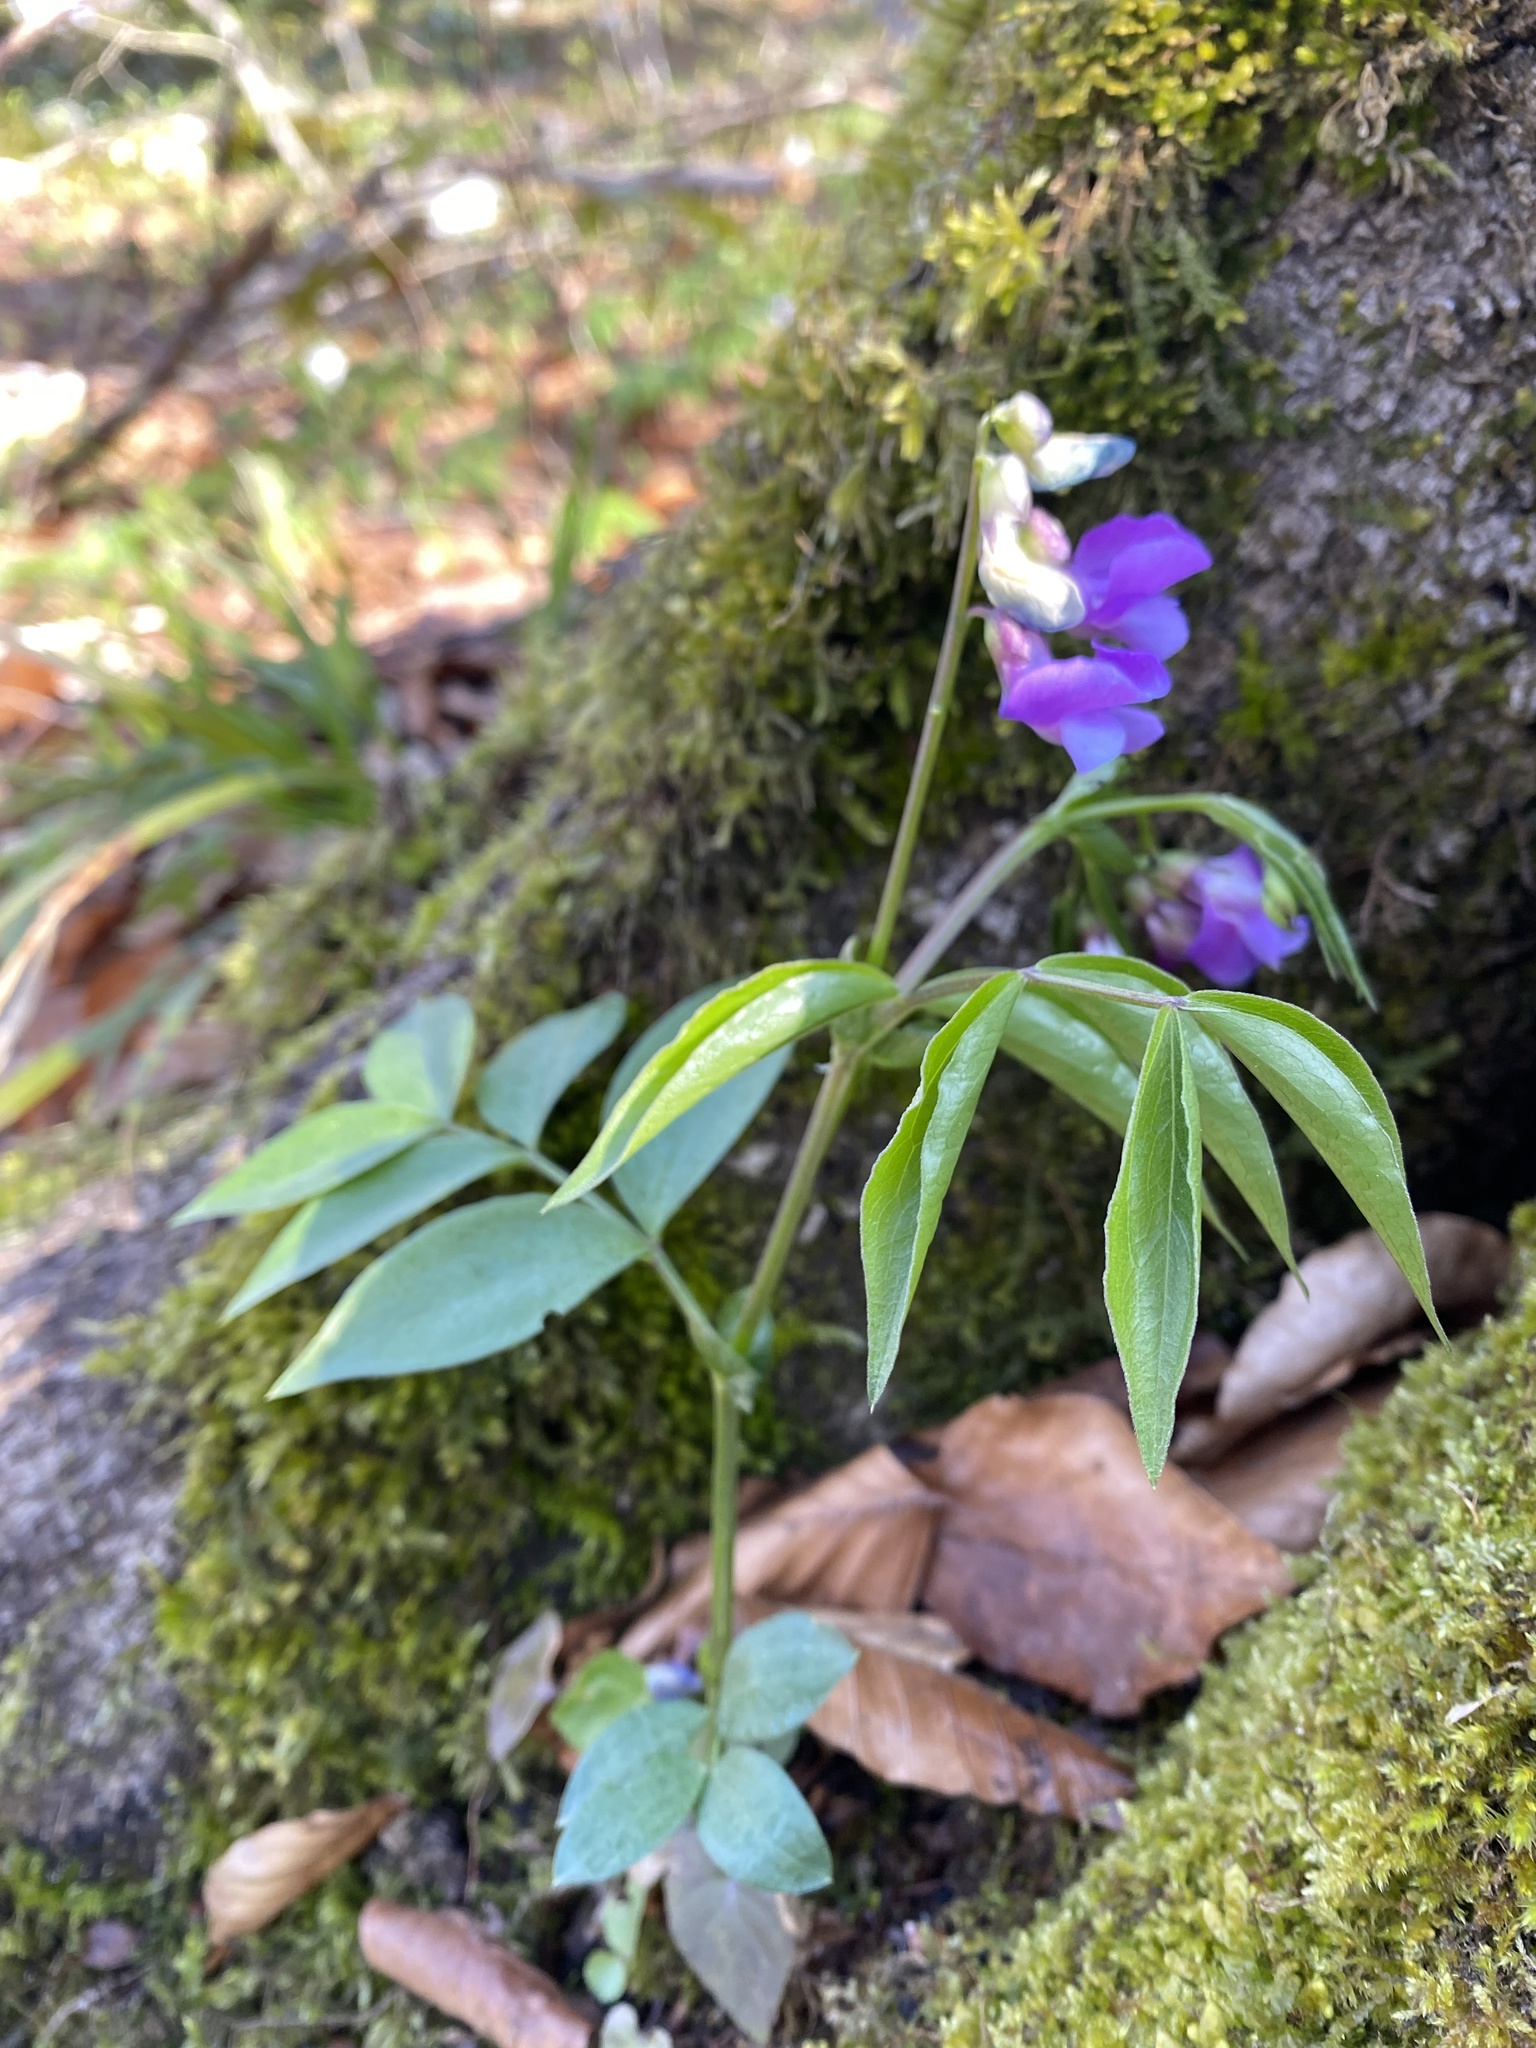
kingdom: Plantae
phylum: Tracheophyta
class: Magnoliopsida
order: Fabales
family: Fabaceae
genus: Lathyrus
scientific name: Lathyrus vernus
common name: Spring pea
